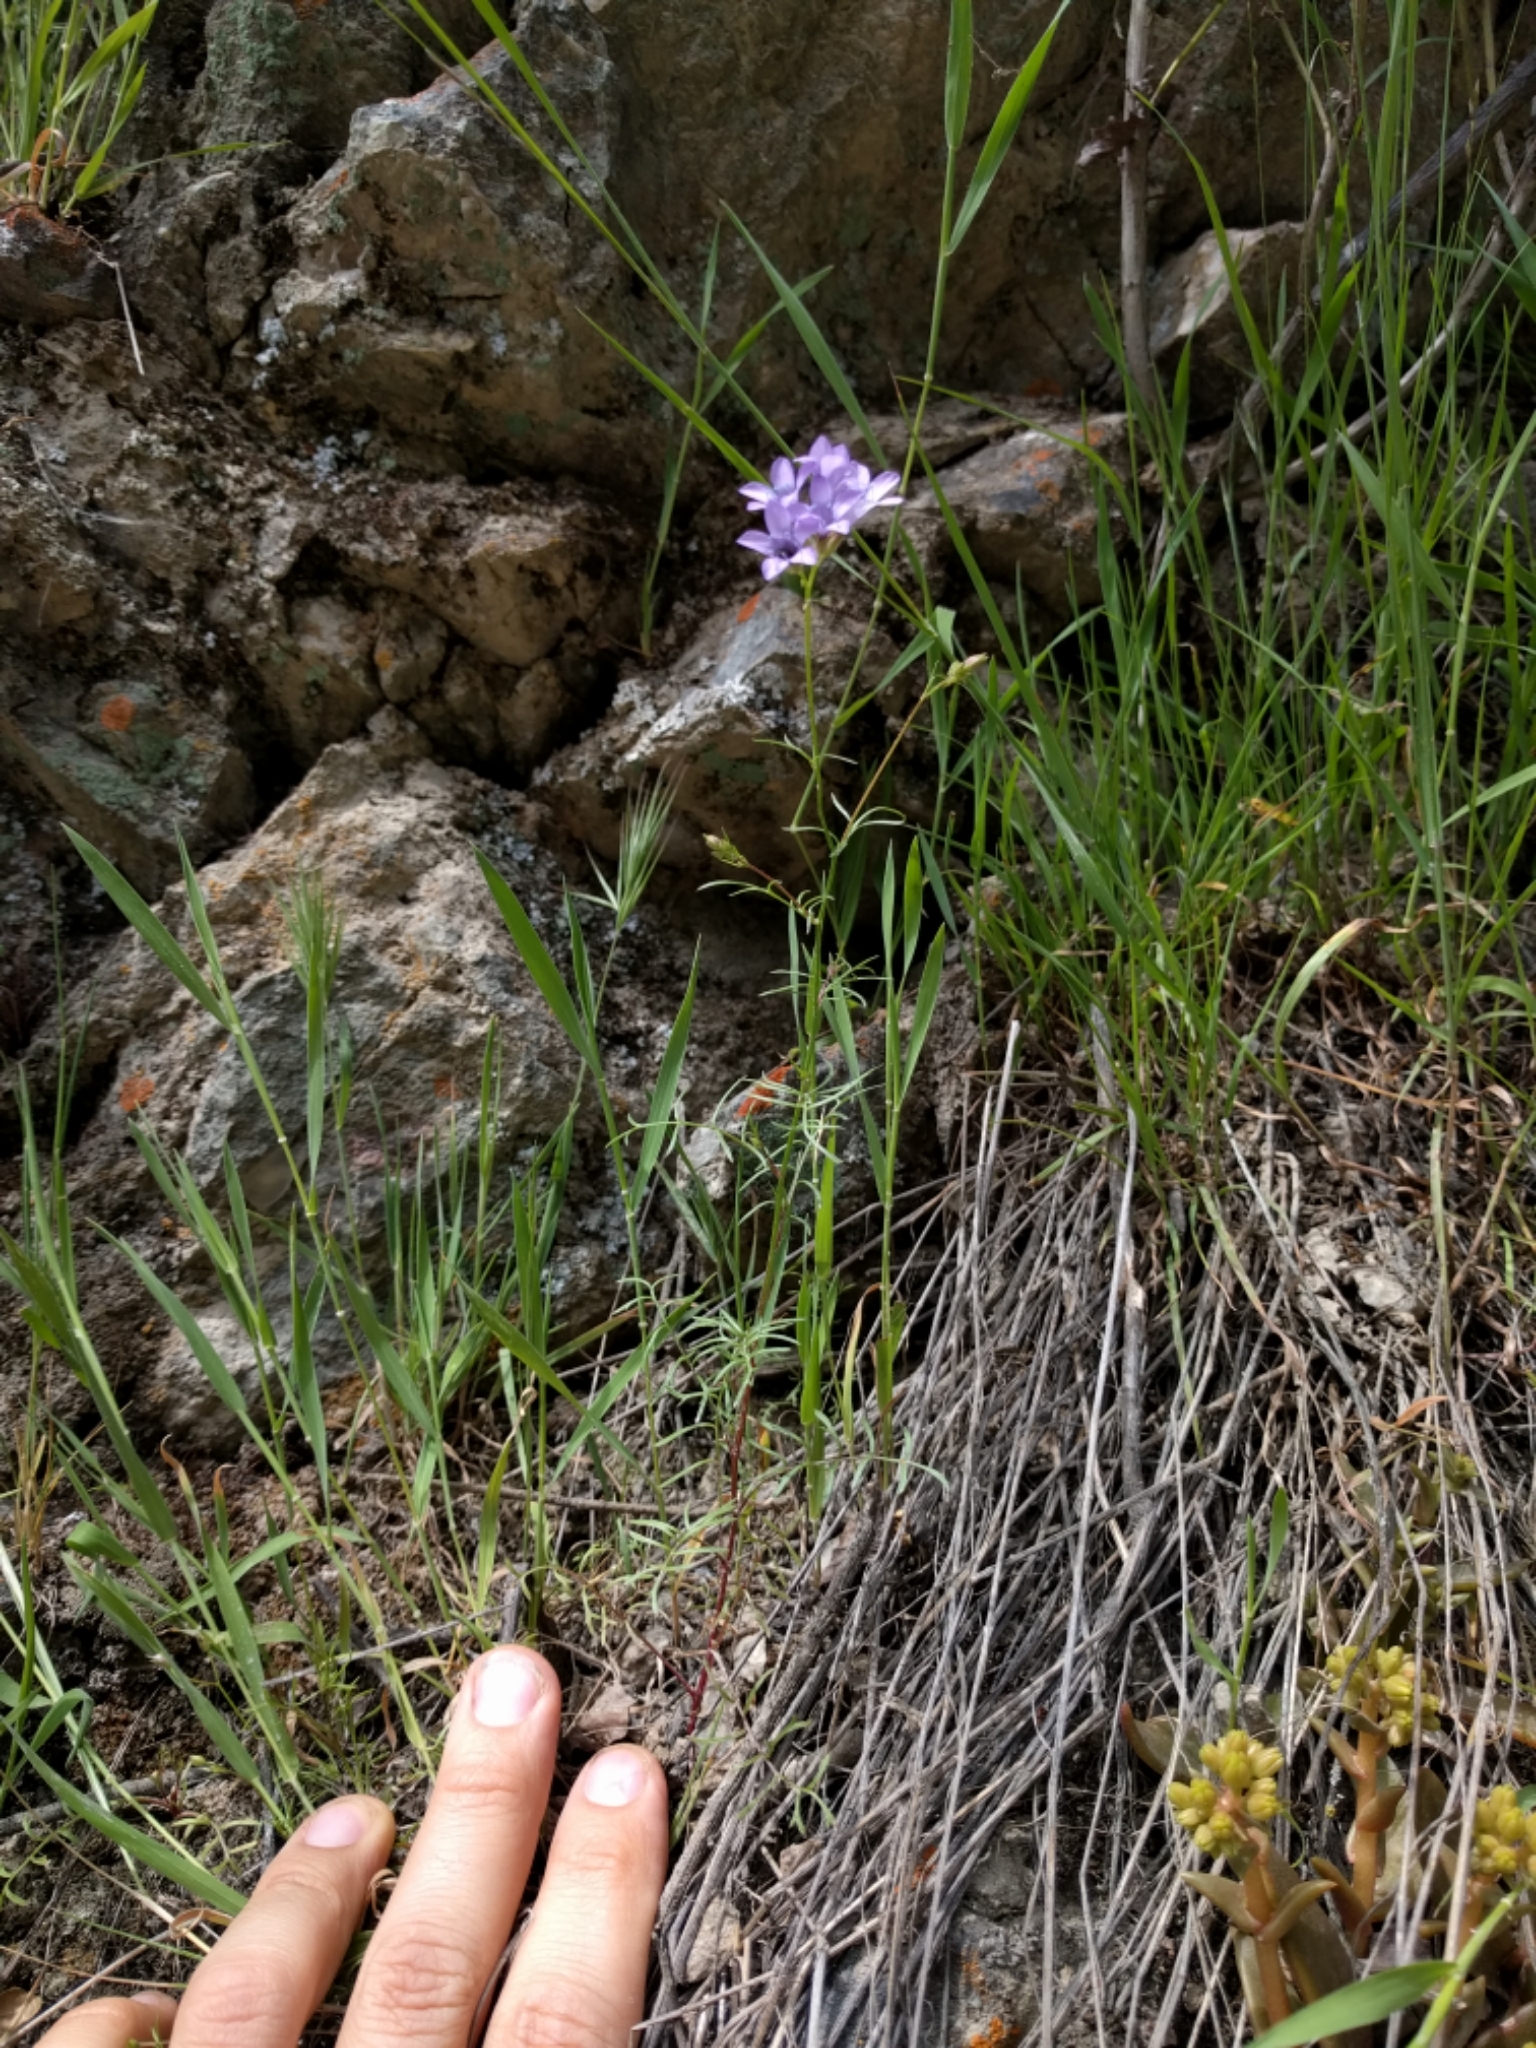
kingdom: Plantae
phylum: Tracheophyta
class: Magnoliopsida
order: Ericales
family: Polemoniaceae
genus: Gilia
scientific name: Gilia achilleifolia
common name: California gily-flower
